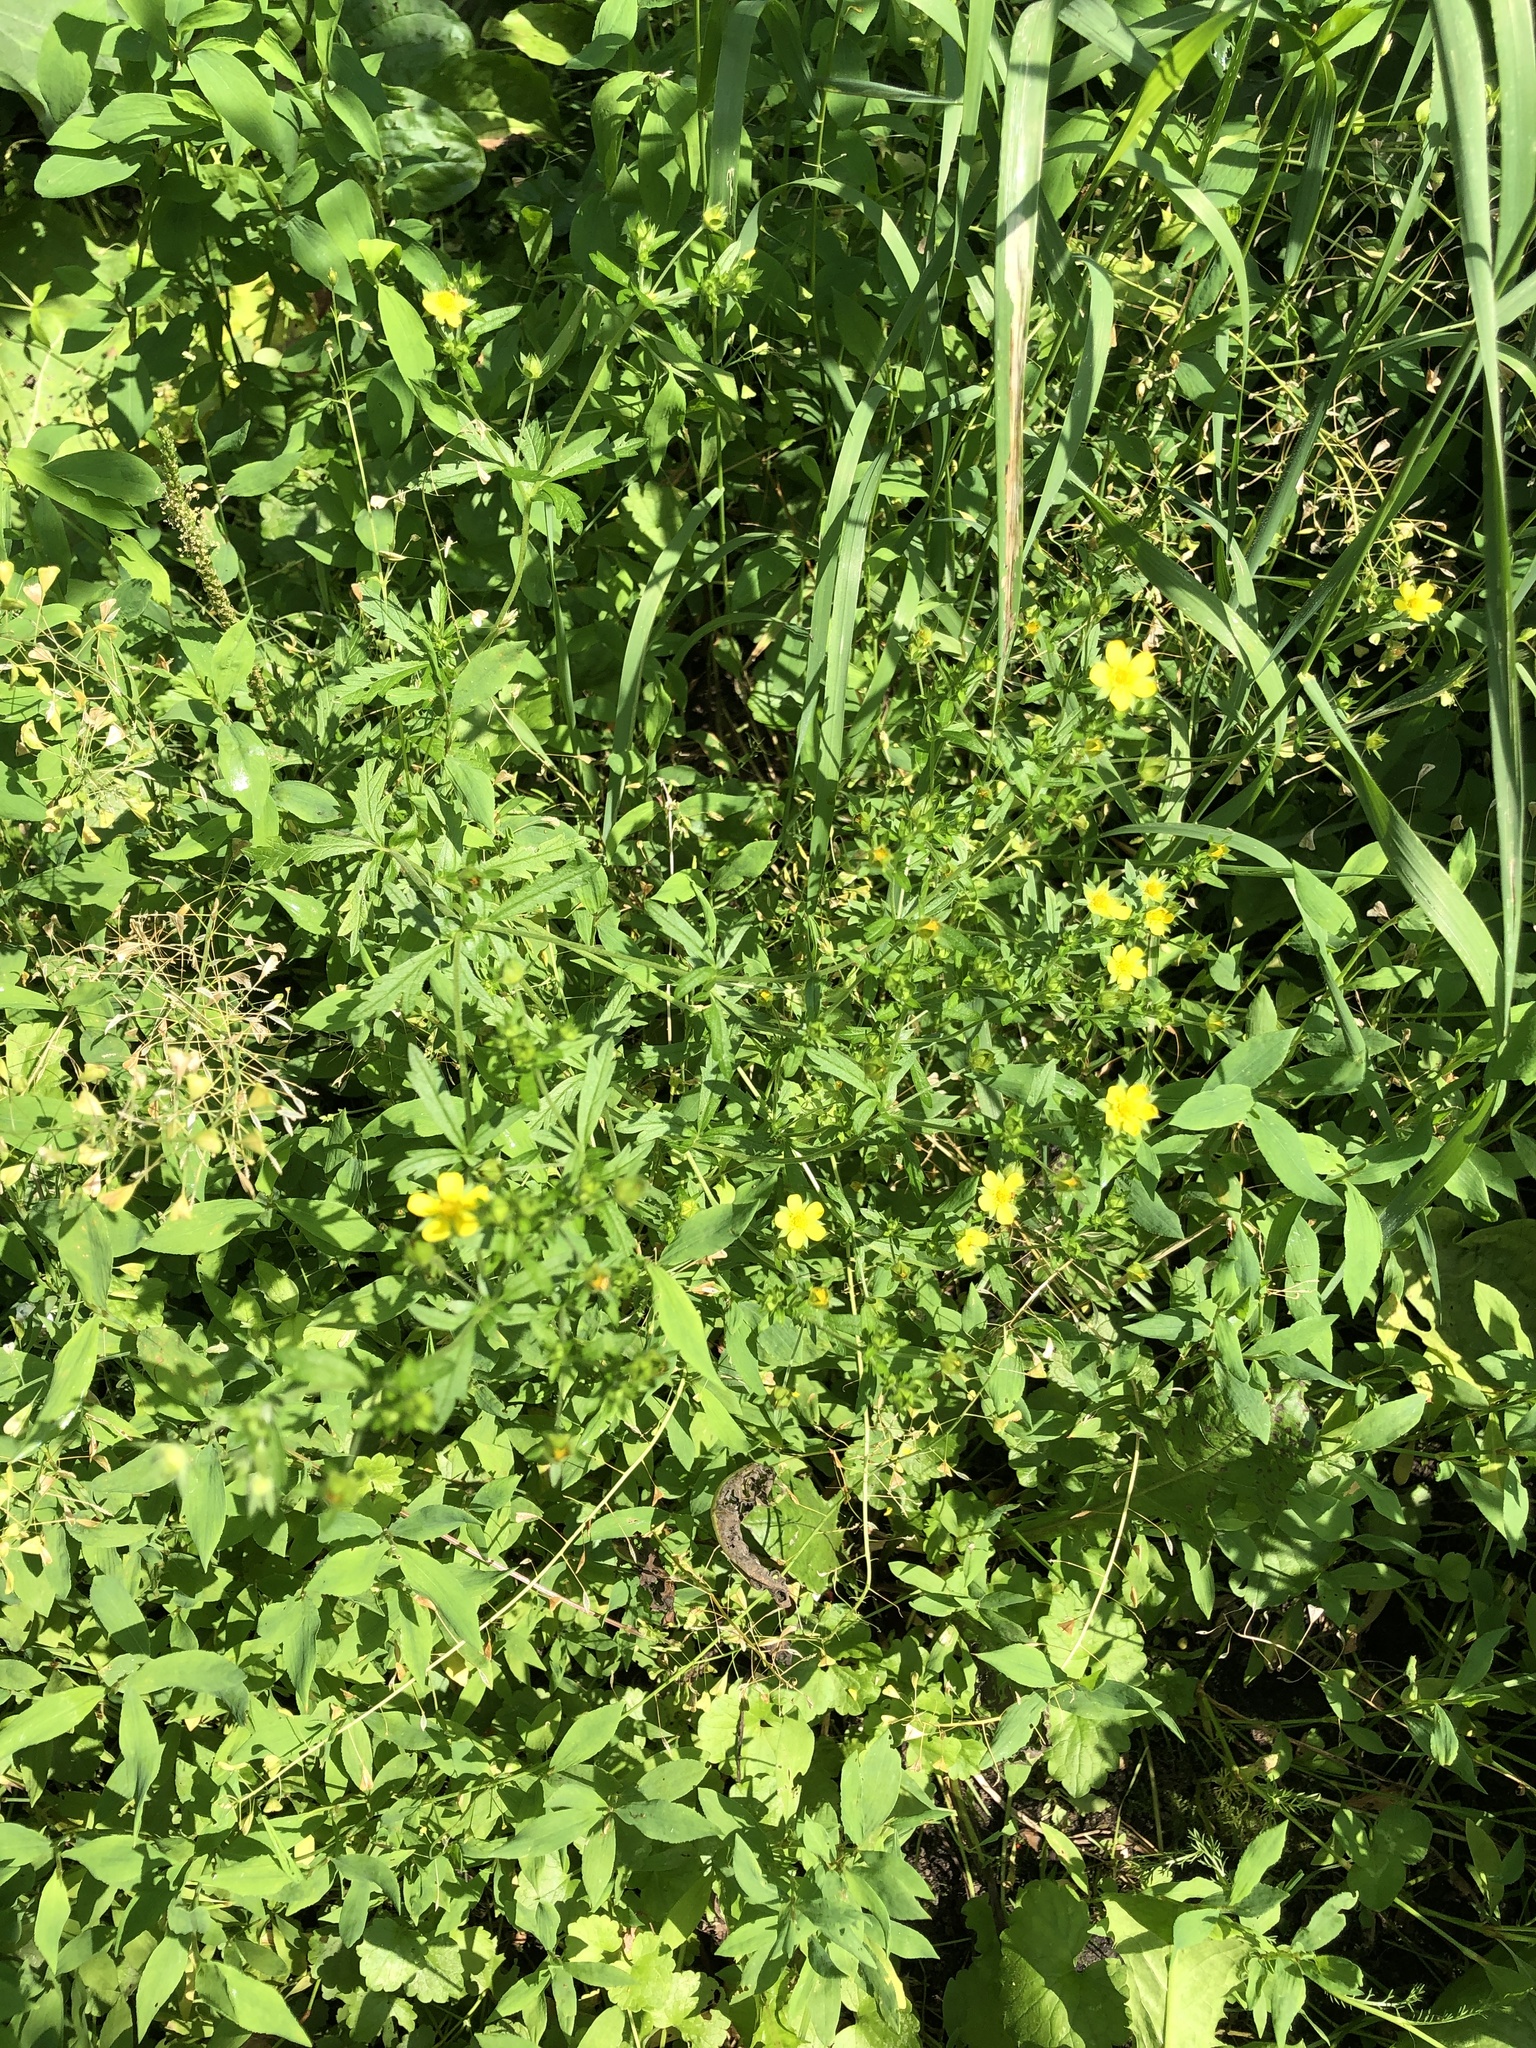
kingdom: Plantae
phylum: Tracheophyta
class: Magnoliopsida
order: Rosales
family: Rosaceae
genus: Potentilla
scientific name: Potentilla norvegica
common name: Ternate-leaved cinquefoil
